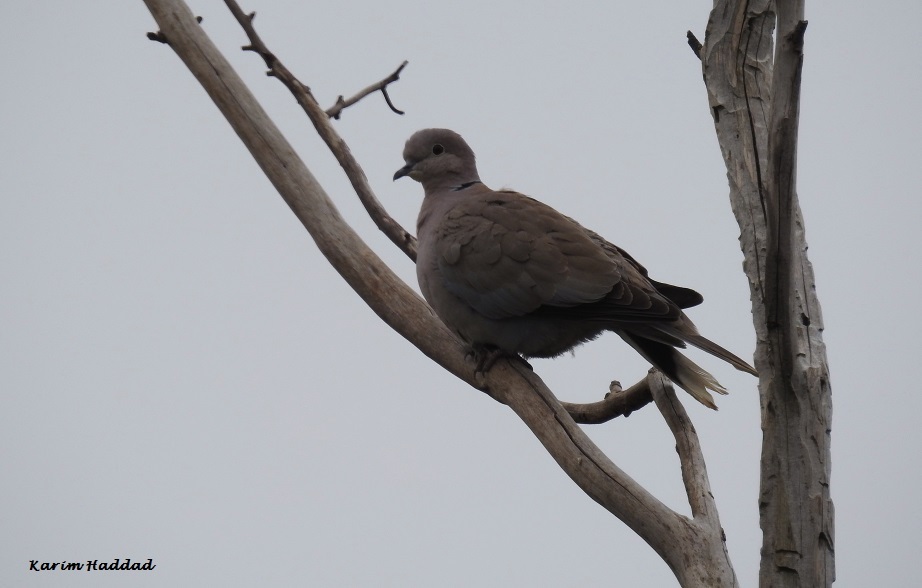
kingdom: Animalia
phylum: Chordata
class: Aves
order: Columbiformes
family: Columbidae
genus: Streptopelia
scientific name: Streptopelia decaocto
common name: Eurasian collared dove
